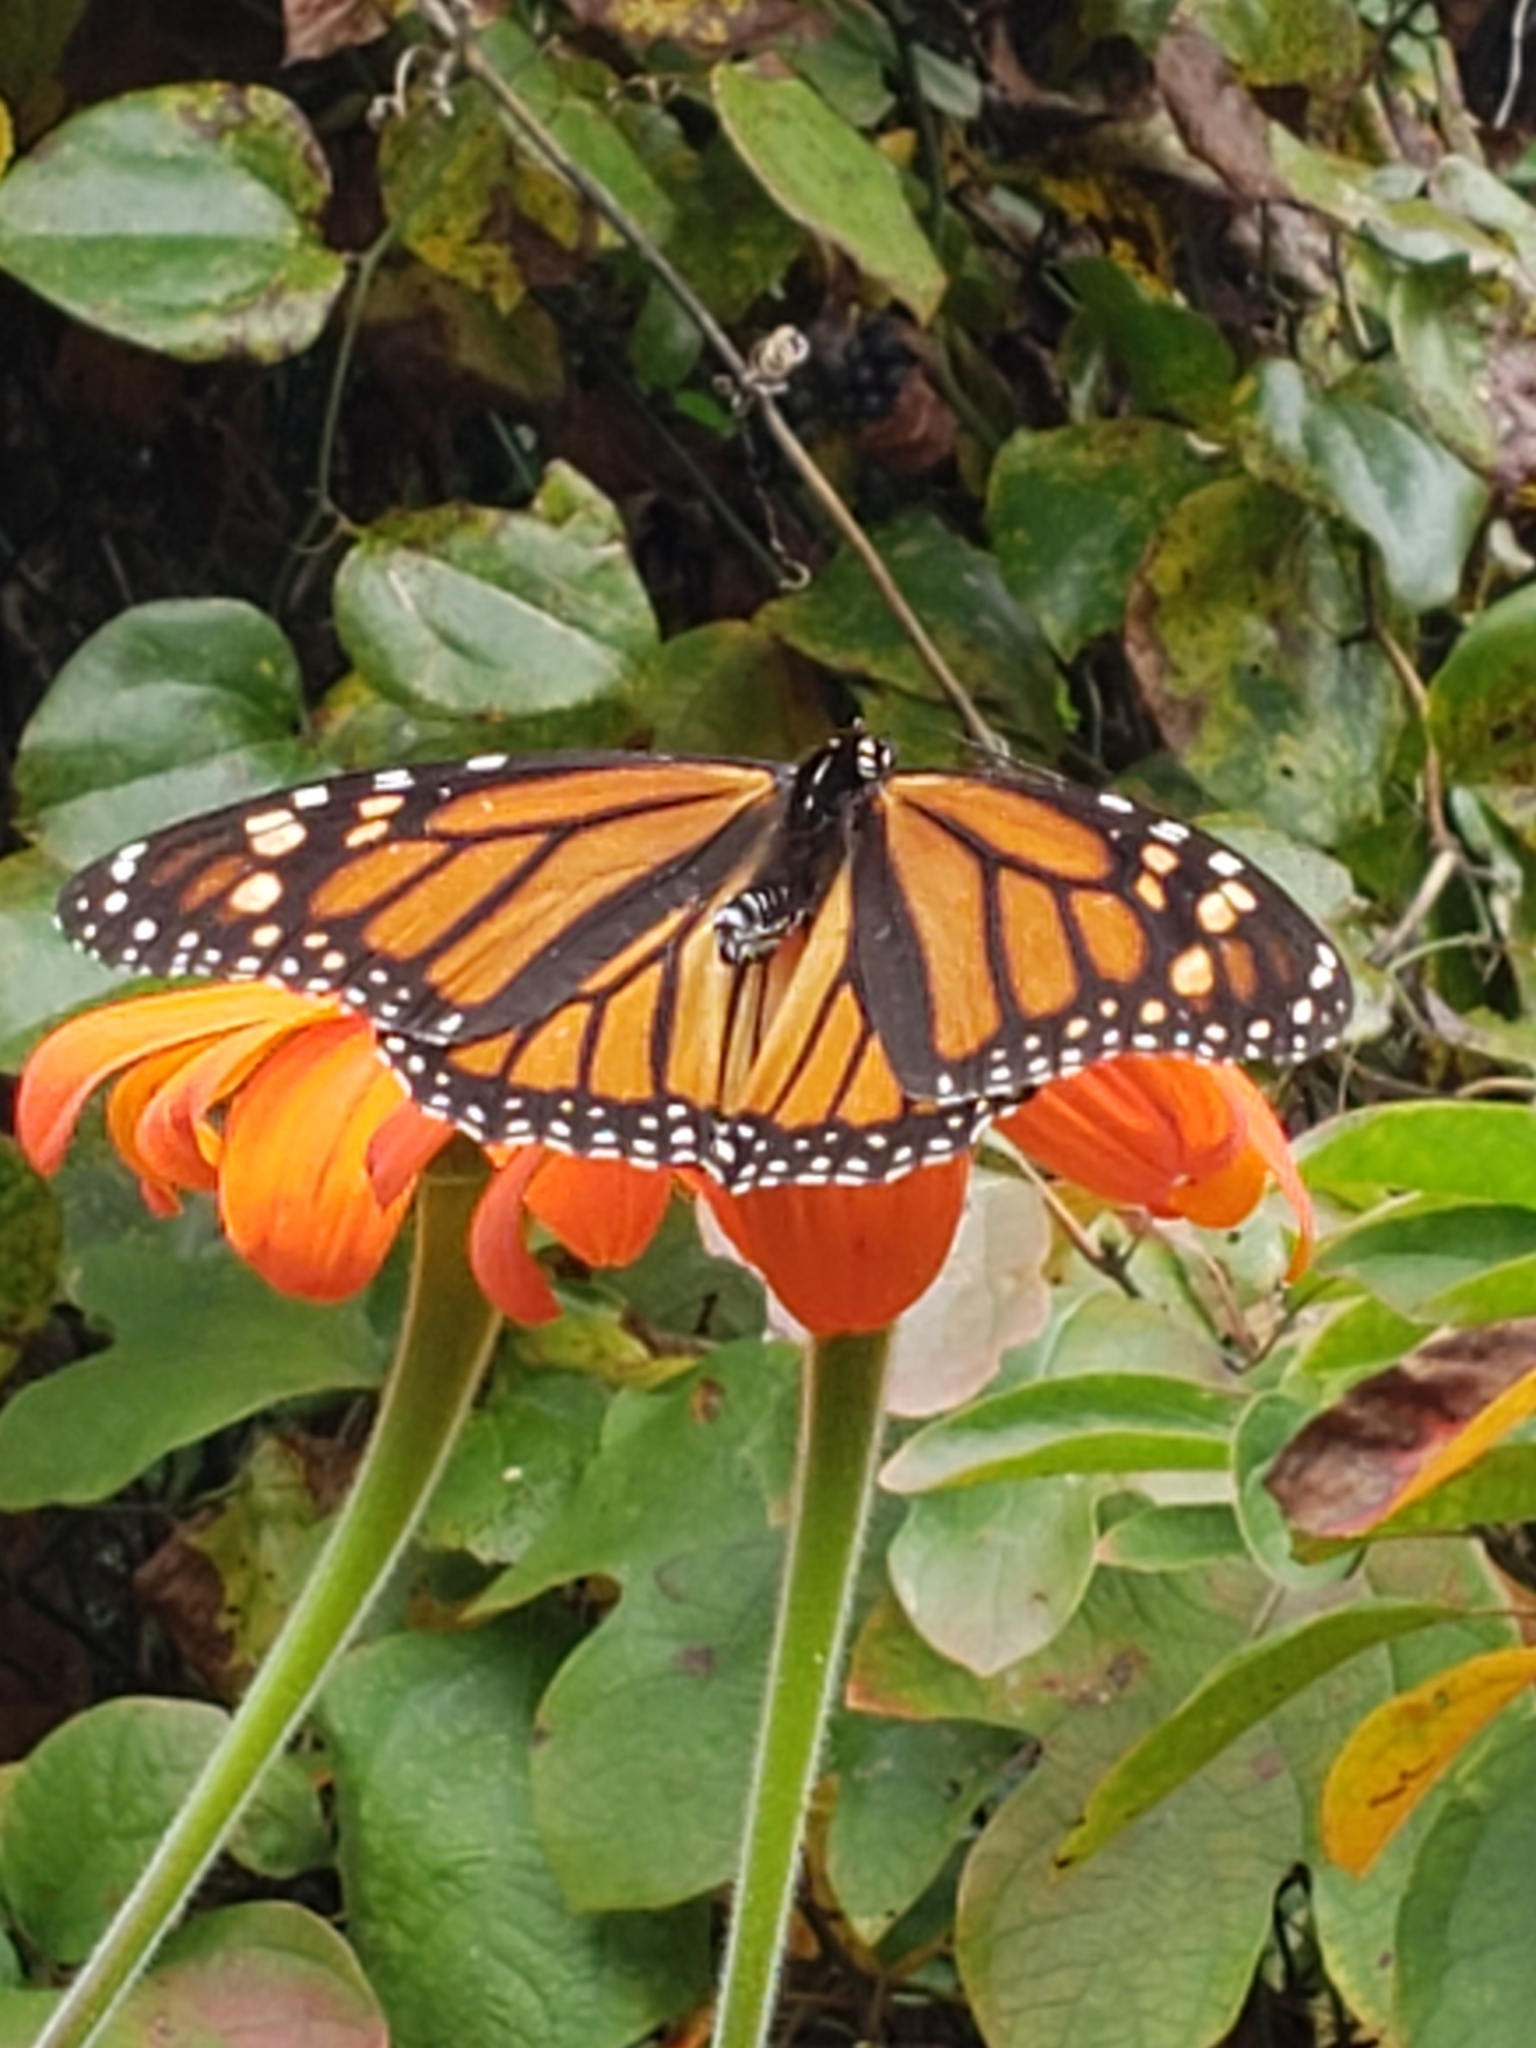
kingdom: Animalia
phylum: Arthropoda
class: Insecta
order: Lepidoptera
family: Nymphalidae
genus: Danaus
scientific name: Danaus plexippus
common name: Monarch
